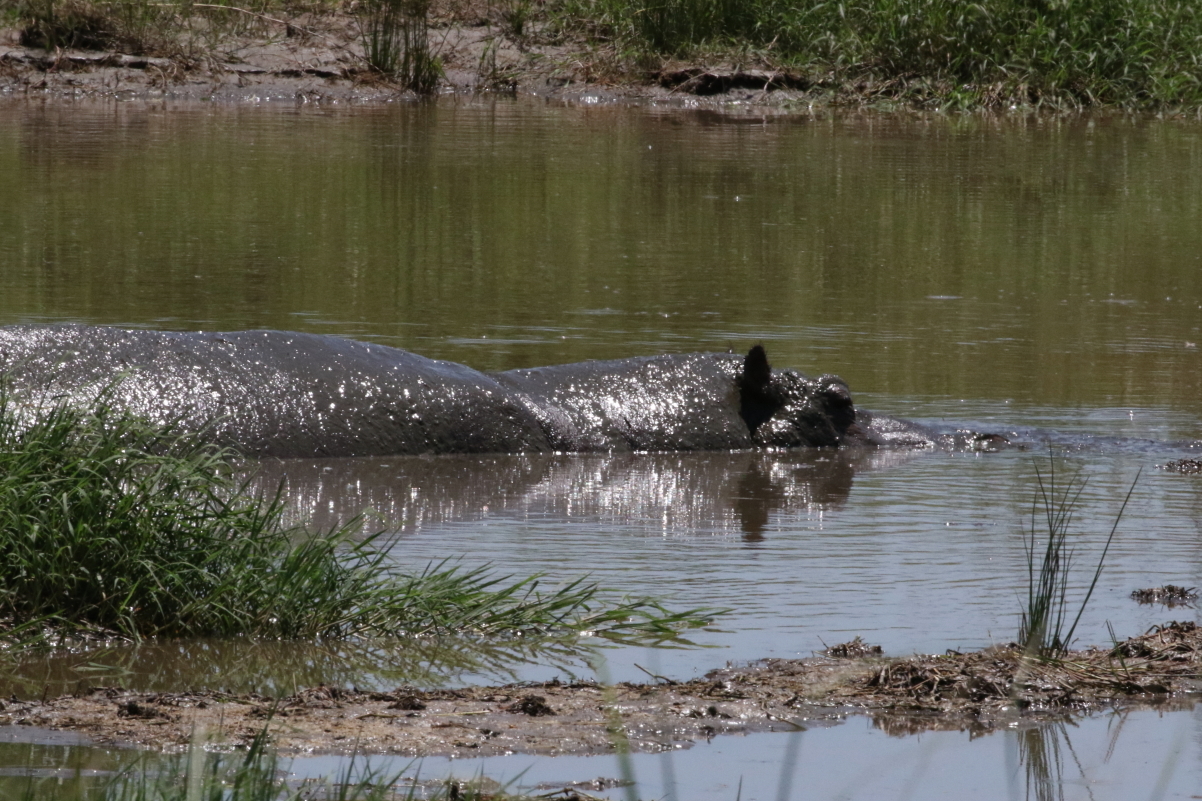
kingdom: Animalia
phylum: Chordata
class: Mammalia
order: Artiodactyla
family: Hippopotamidae
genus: Hippopotamus
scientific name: Hippopotamus amphibius
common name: Common hippopotamus
